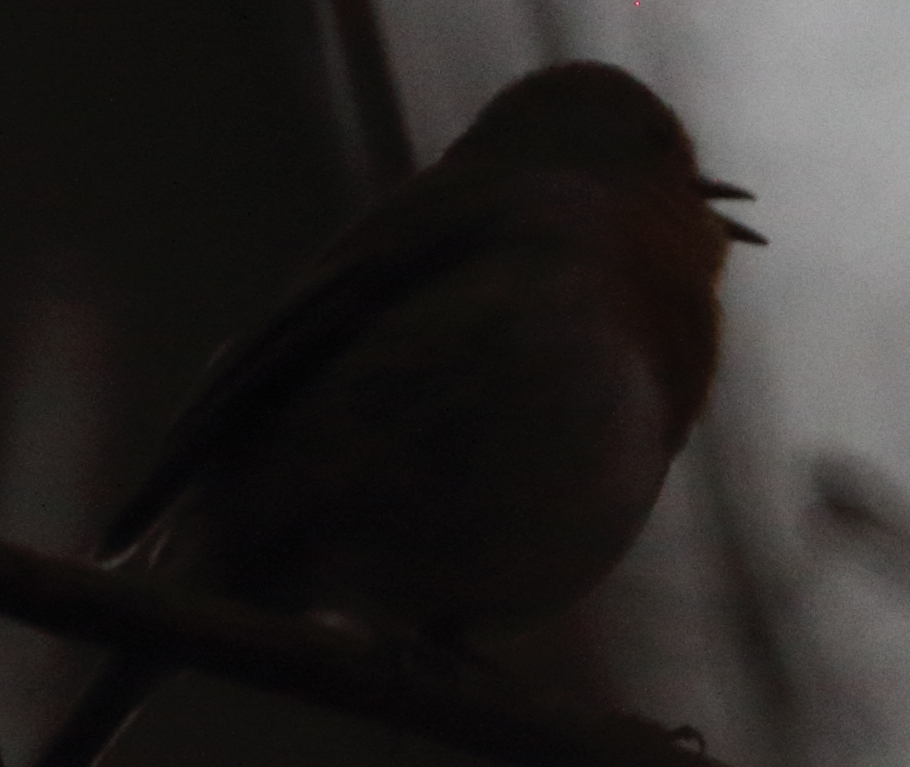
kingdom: Animalia
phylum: Chordata
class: Aves
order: Passeriformes
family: Muscicapidae
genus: Erithacus
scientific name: Erithacus rubecula
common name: European robin
